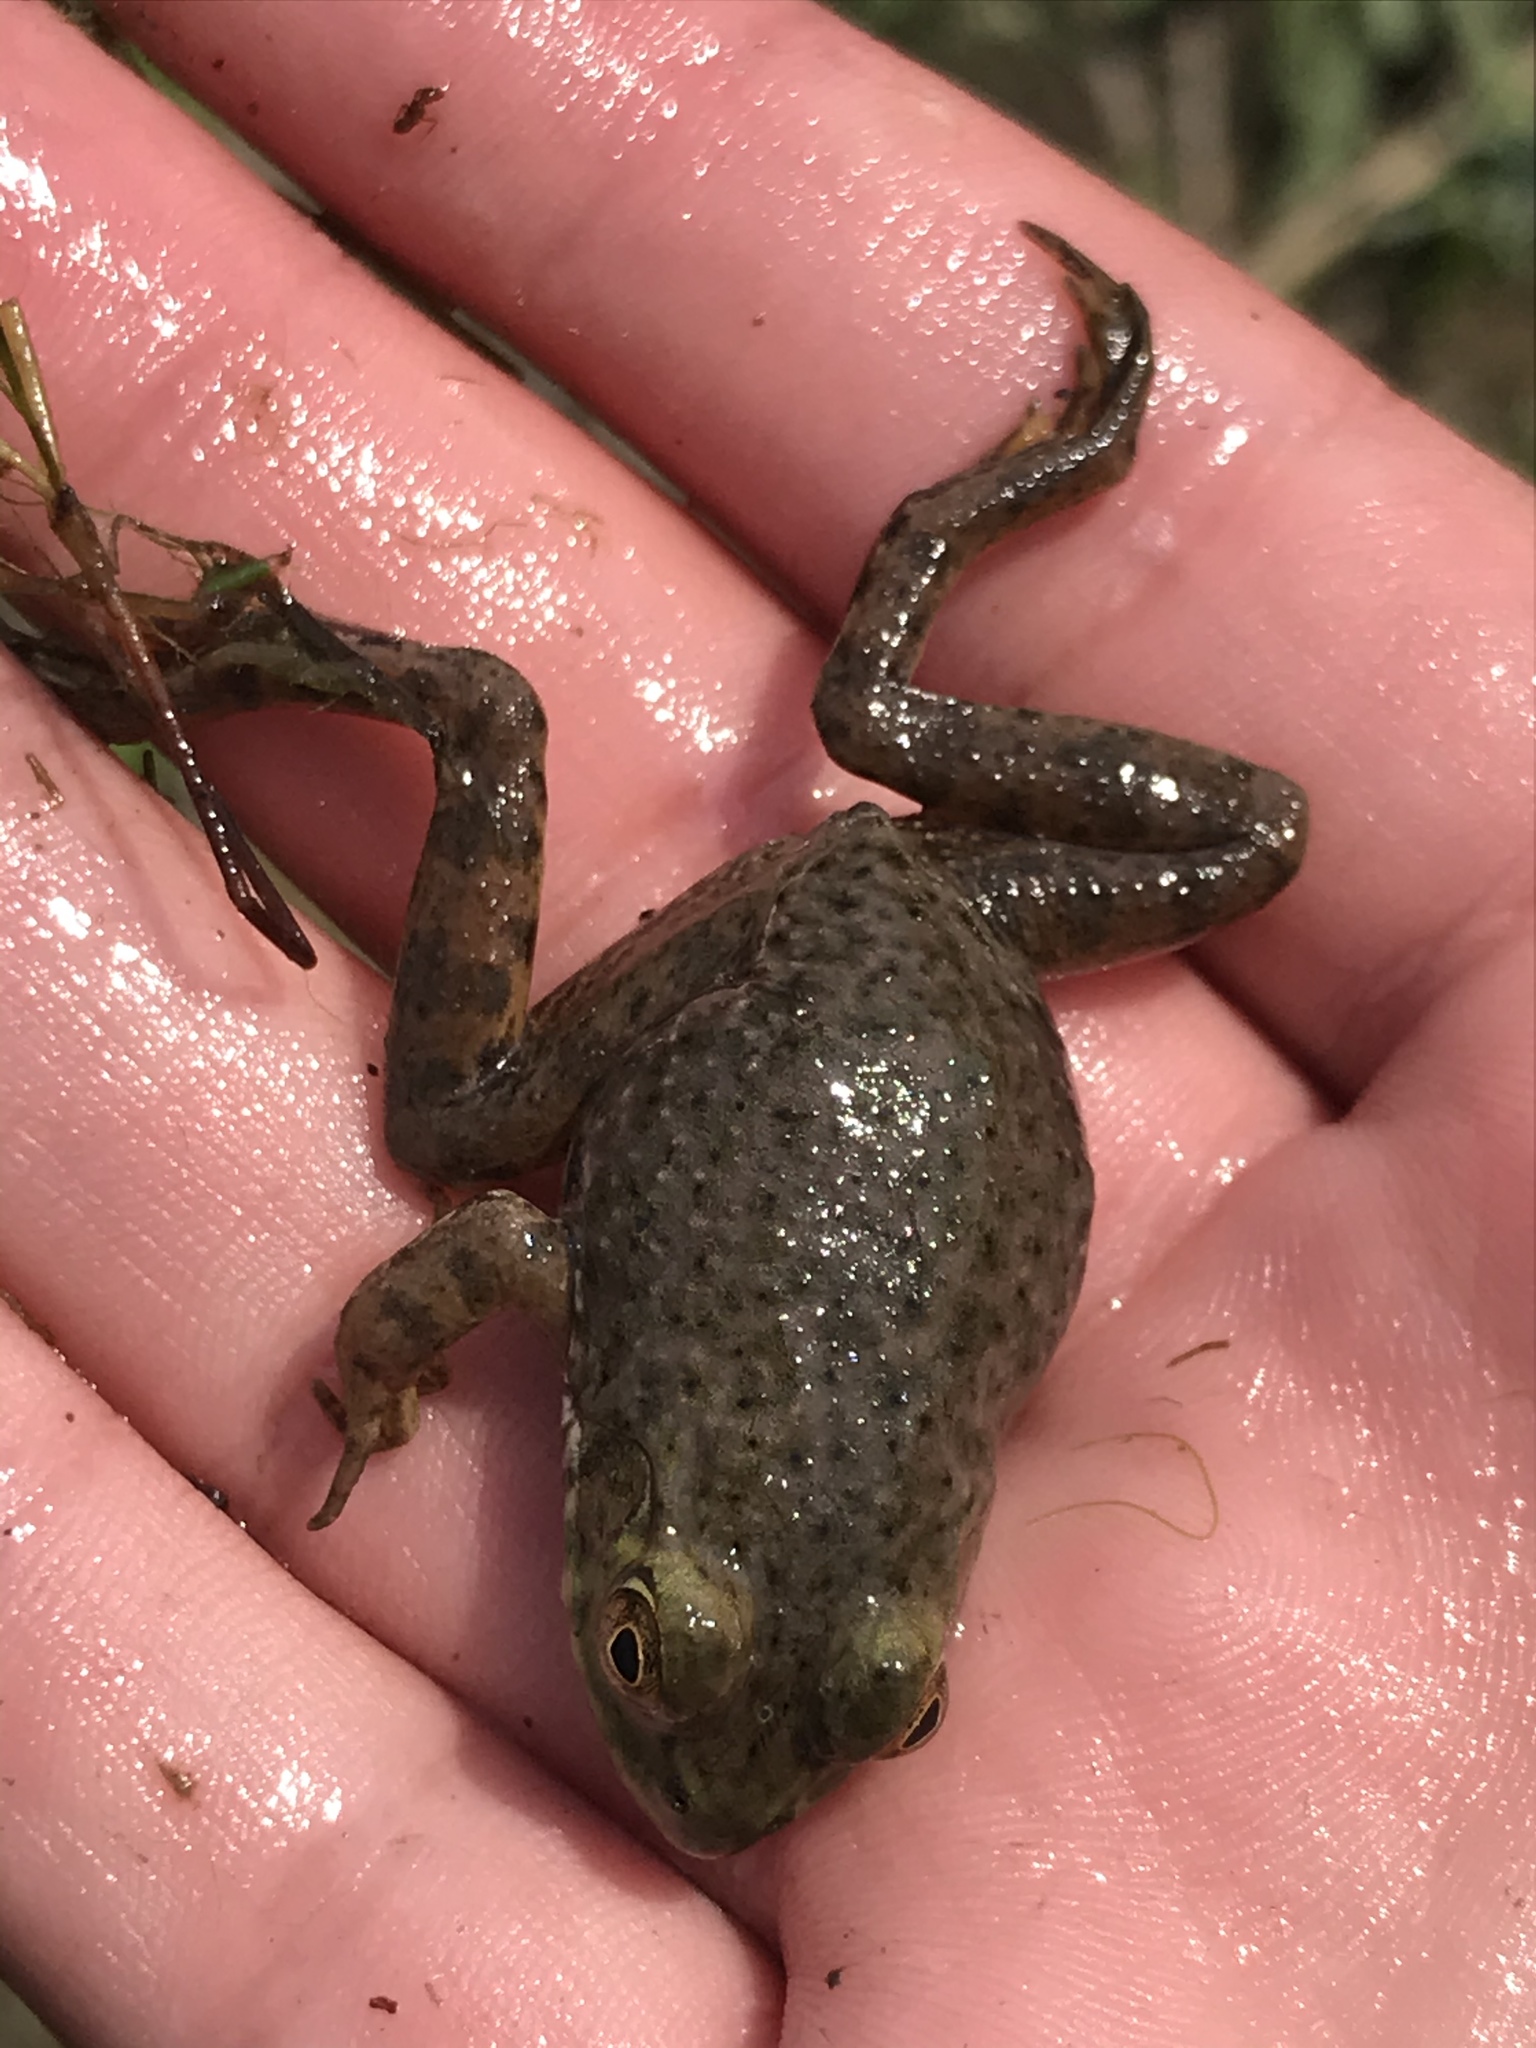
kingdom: Animalia
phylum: Chordata
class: Amphibia
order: Anura
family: Ranidae
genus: Lithobates
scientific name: Lithobates catesbeianus
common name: American bullfrog
